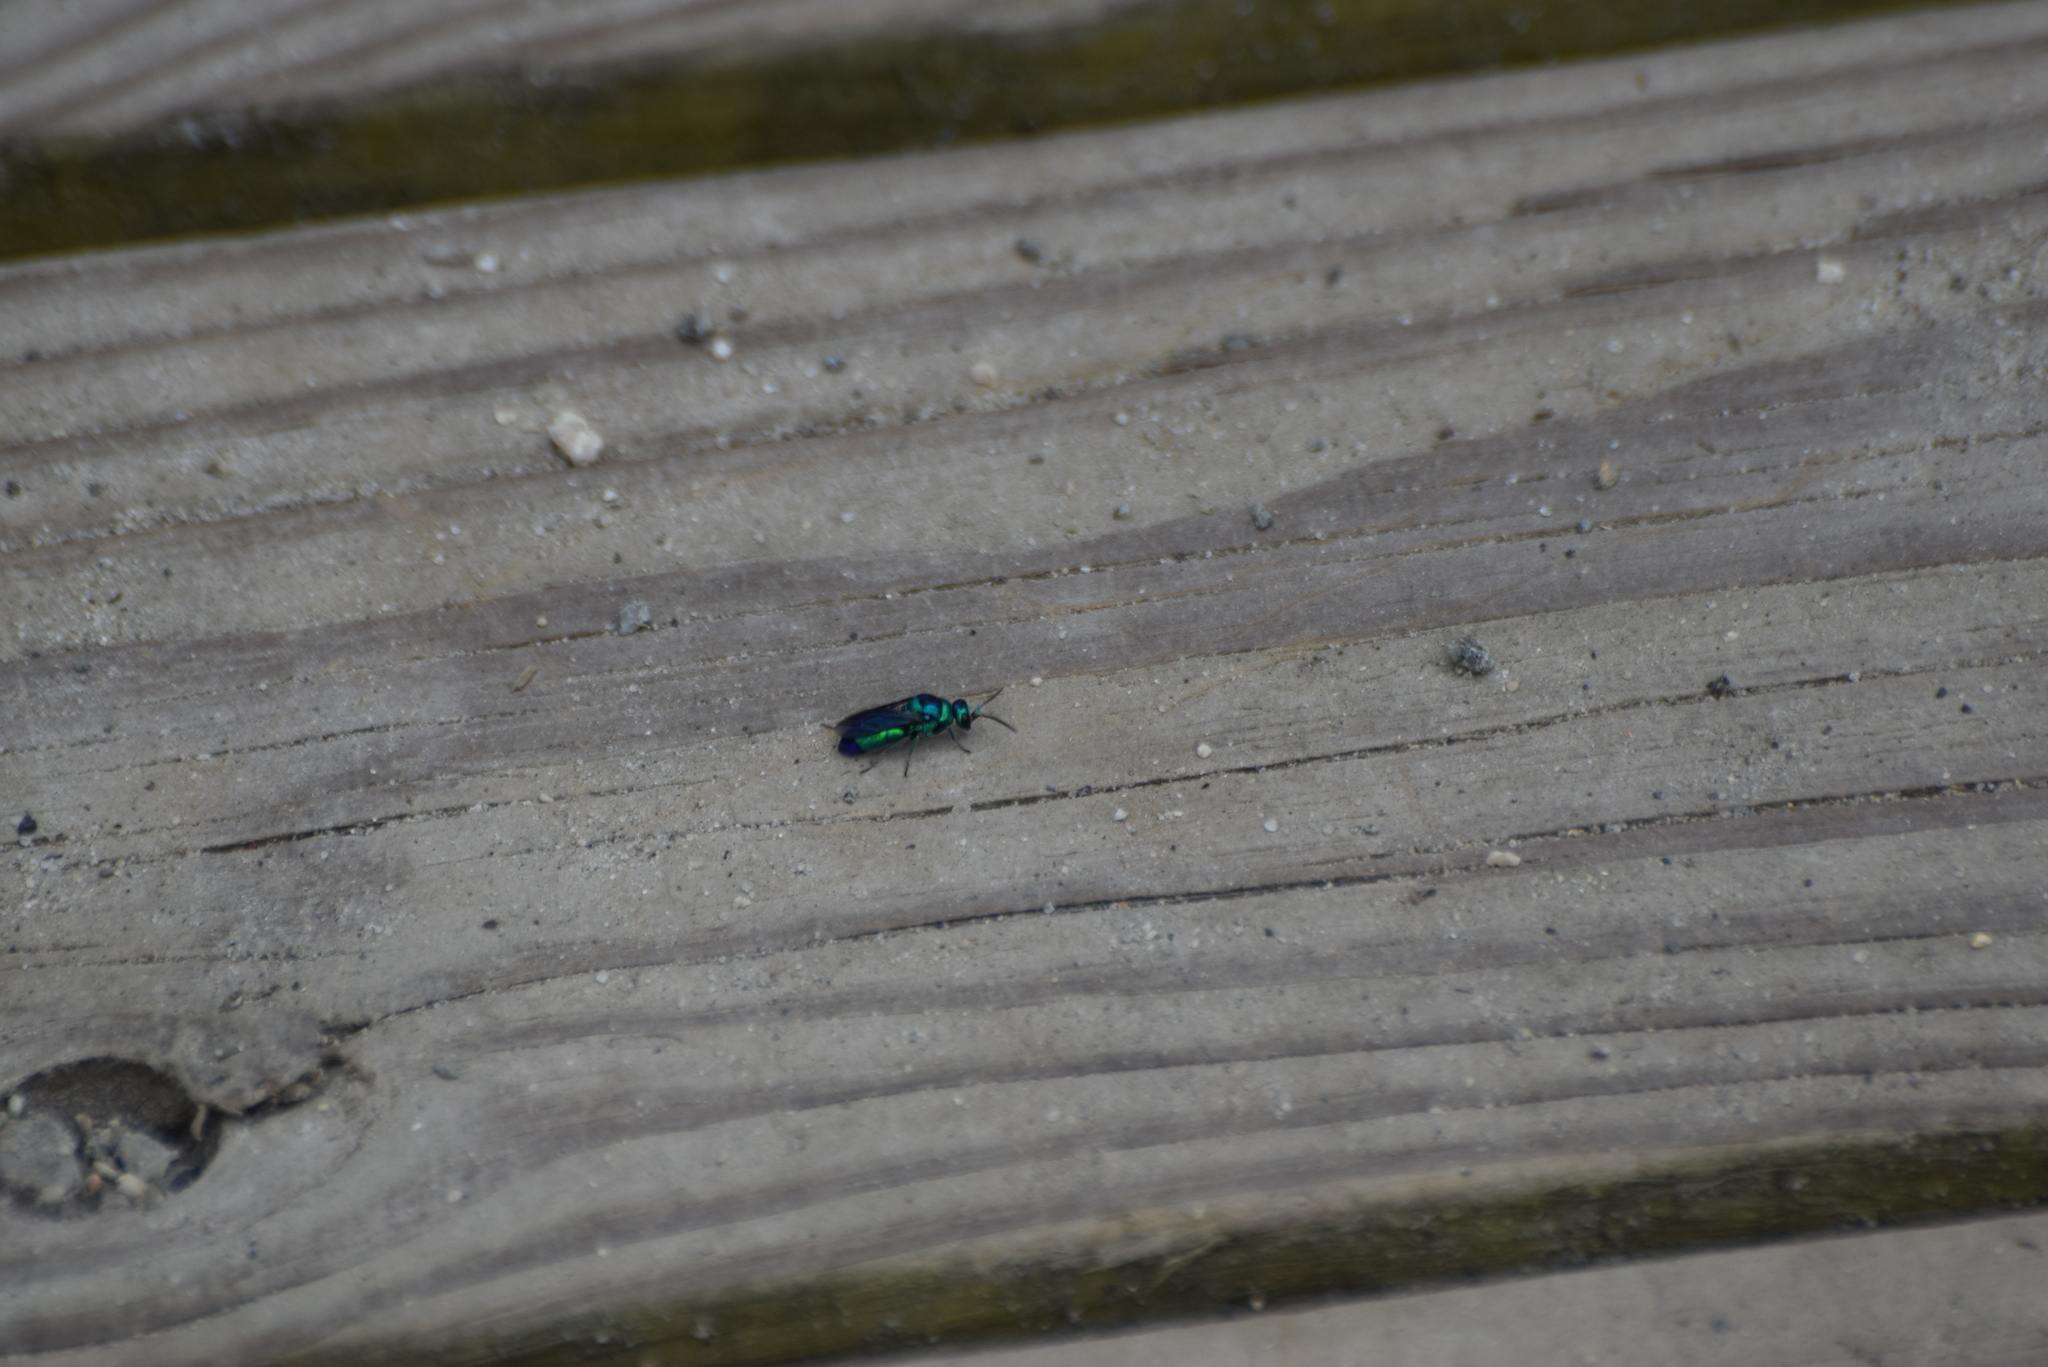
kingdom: Animalia
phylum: Arthropoda
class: Insecta
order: Hymenoptera
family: Chrysididae
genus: Chrysis
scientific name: Chrysis angolensis
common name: Cuckoo wasp
